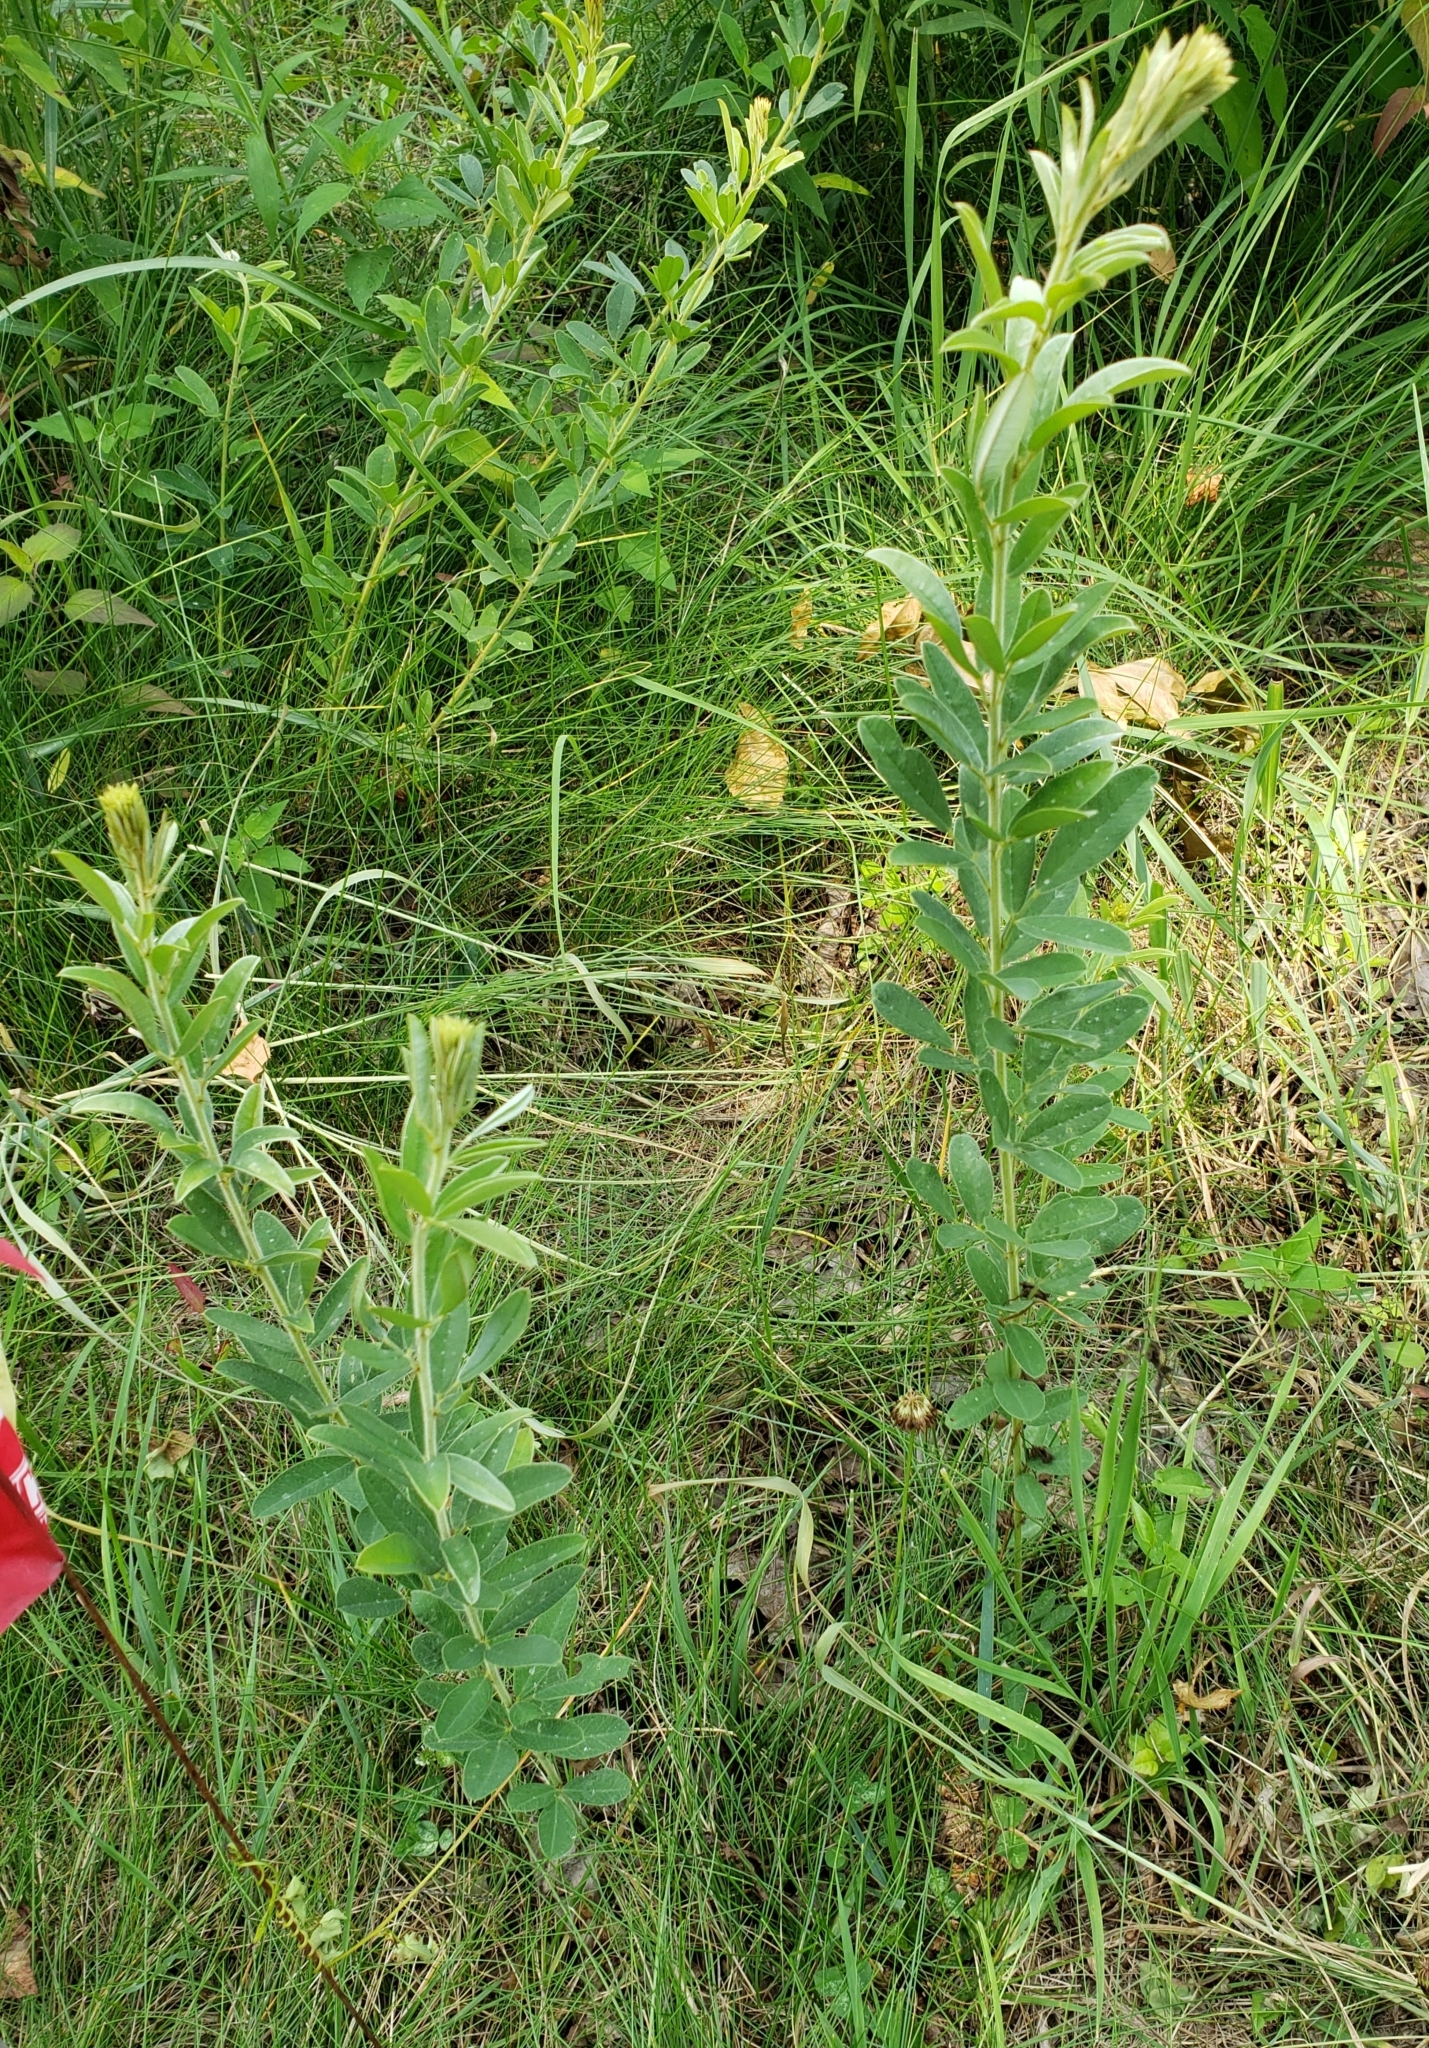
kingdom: Plantae
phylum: Tracheophyta
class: Magnoliopsida
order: Fabales
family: Fabaceae
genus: Lespedeza
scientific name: Lespedeza capitata
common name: Dusty clover
